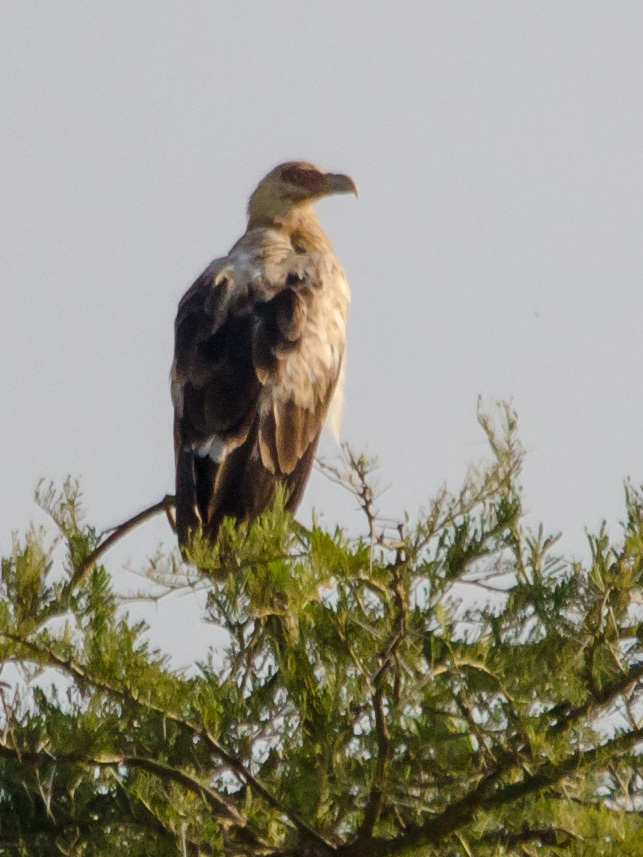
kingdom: Animalia
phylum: Chordata
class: Aves
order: Accipitriformes
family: Accipitridae
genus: Gypohierax
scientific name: Gypohierax angolensis
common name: Palm-nut vulture
